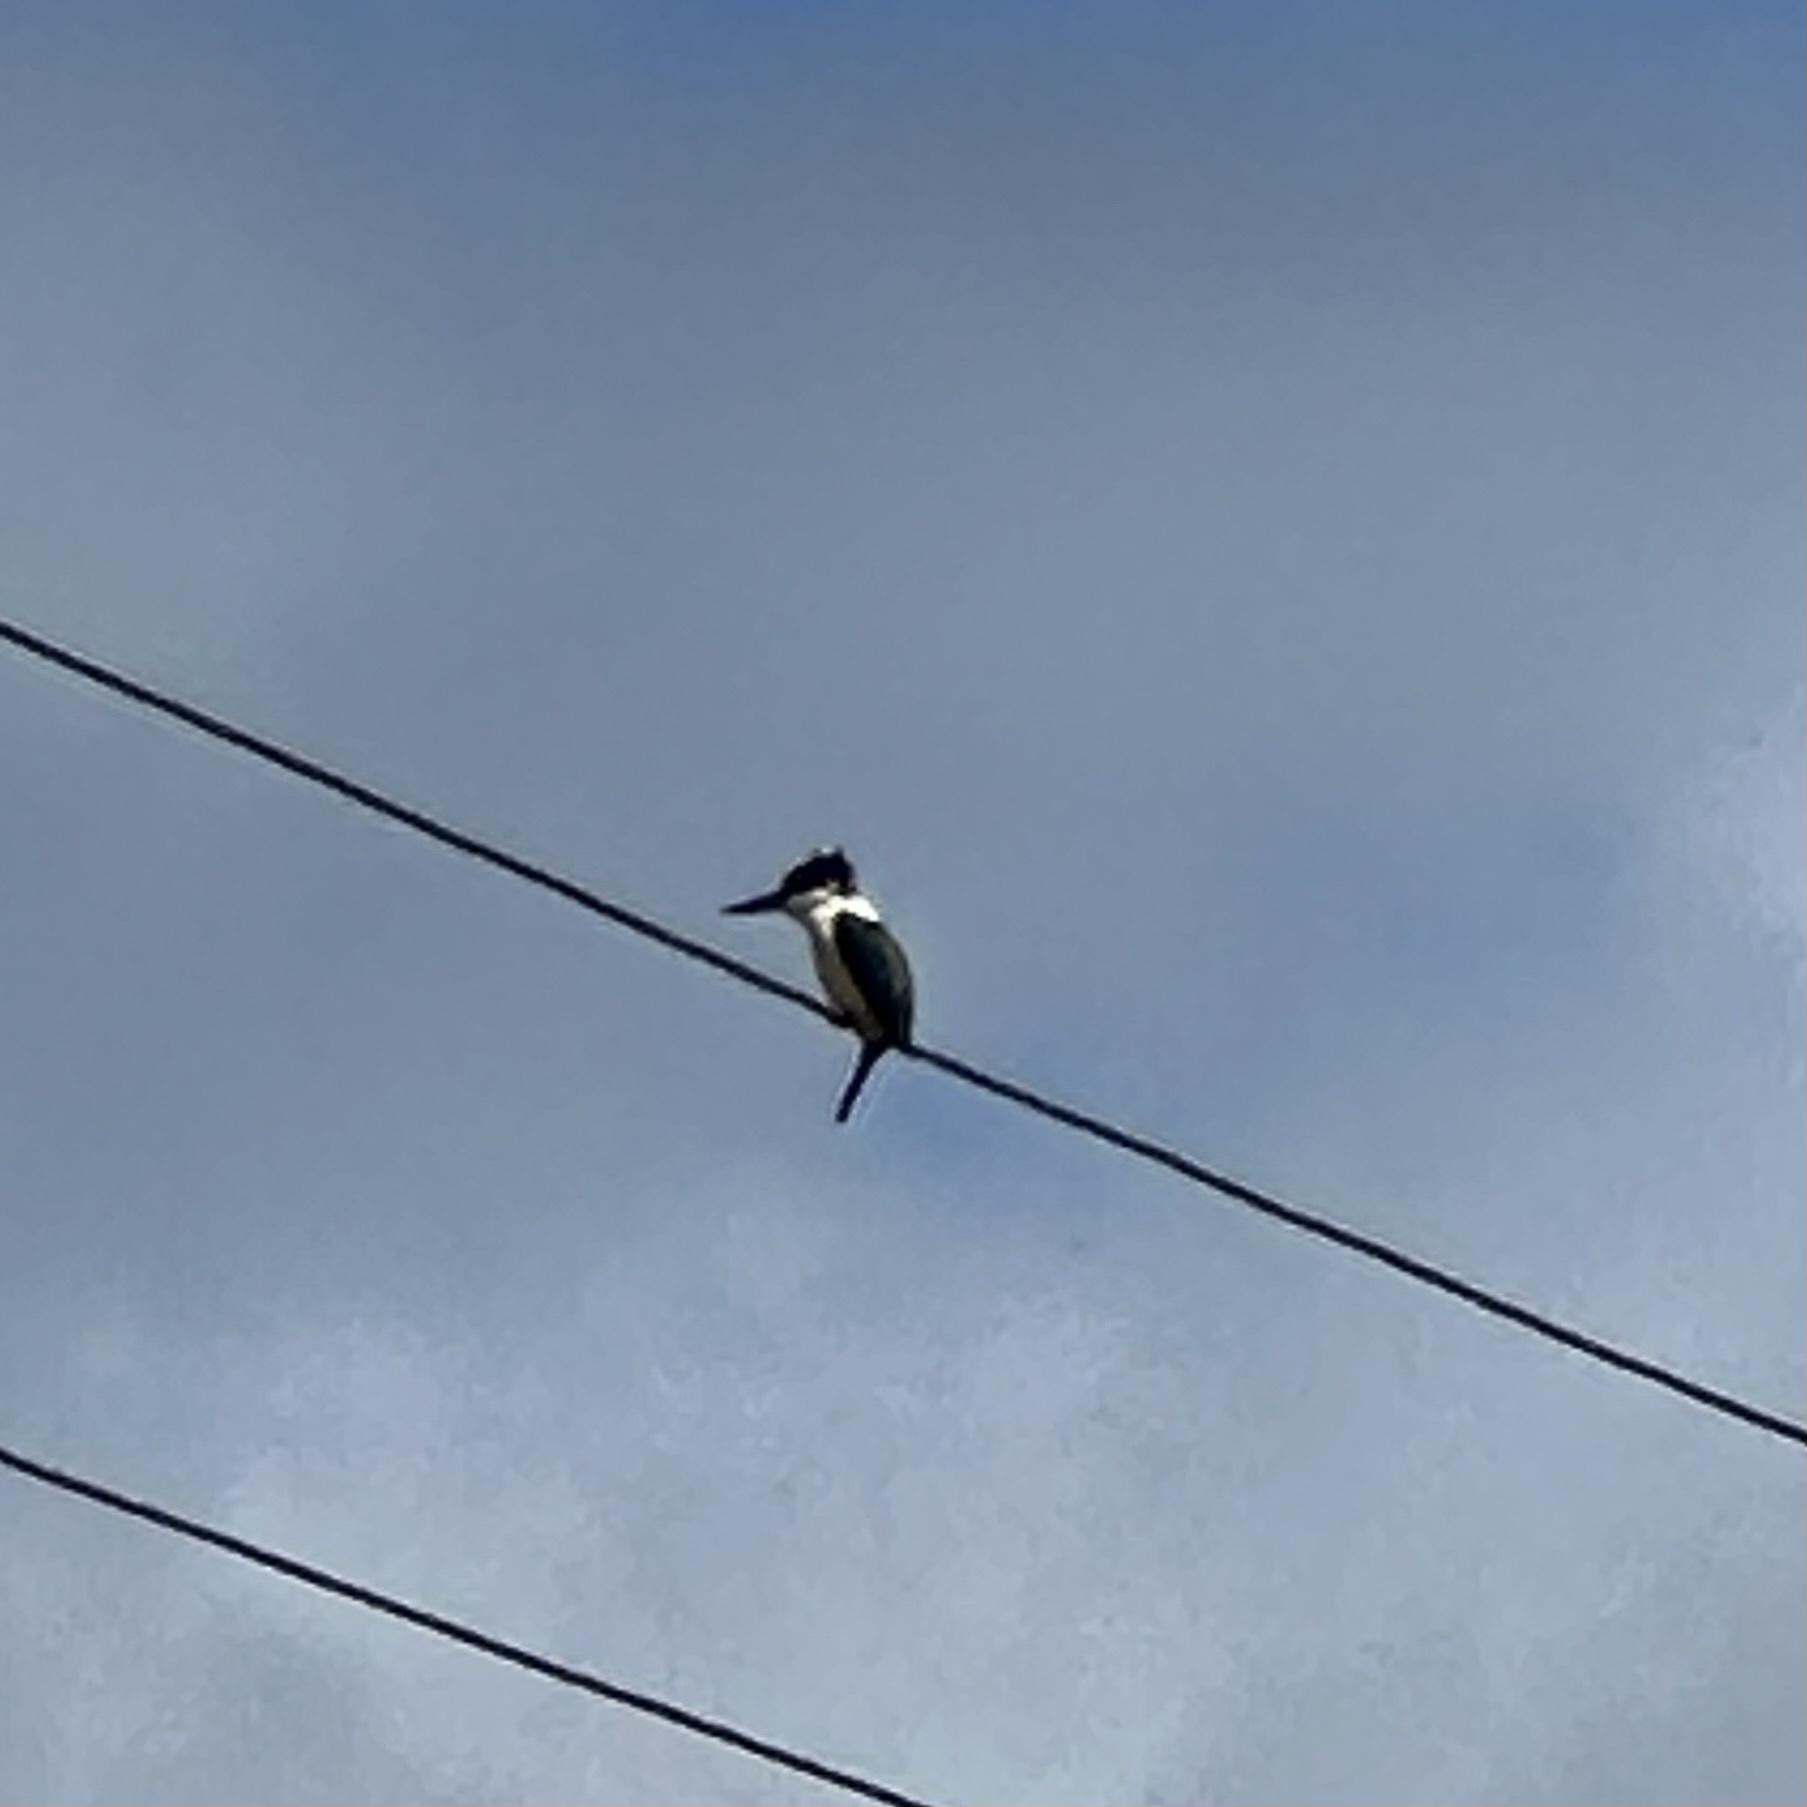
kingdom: Animalia
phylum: Chordata
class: Aves
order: Coraciiformes
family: Alcedinidae
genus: Todiramphus
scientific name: Todiramphus sanctus
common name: Sacred kingfisher
